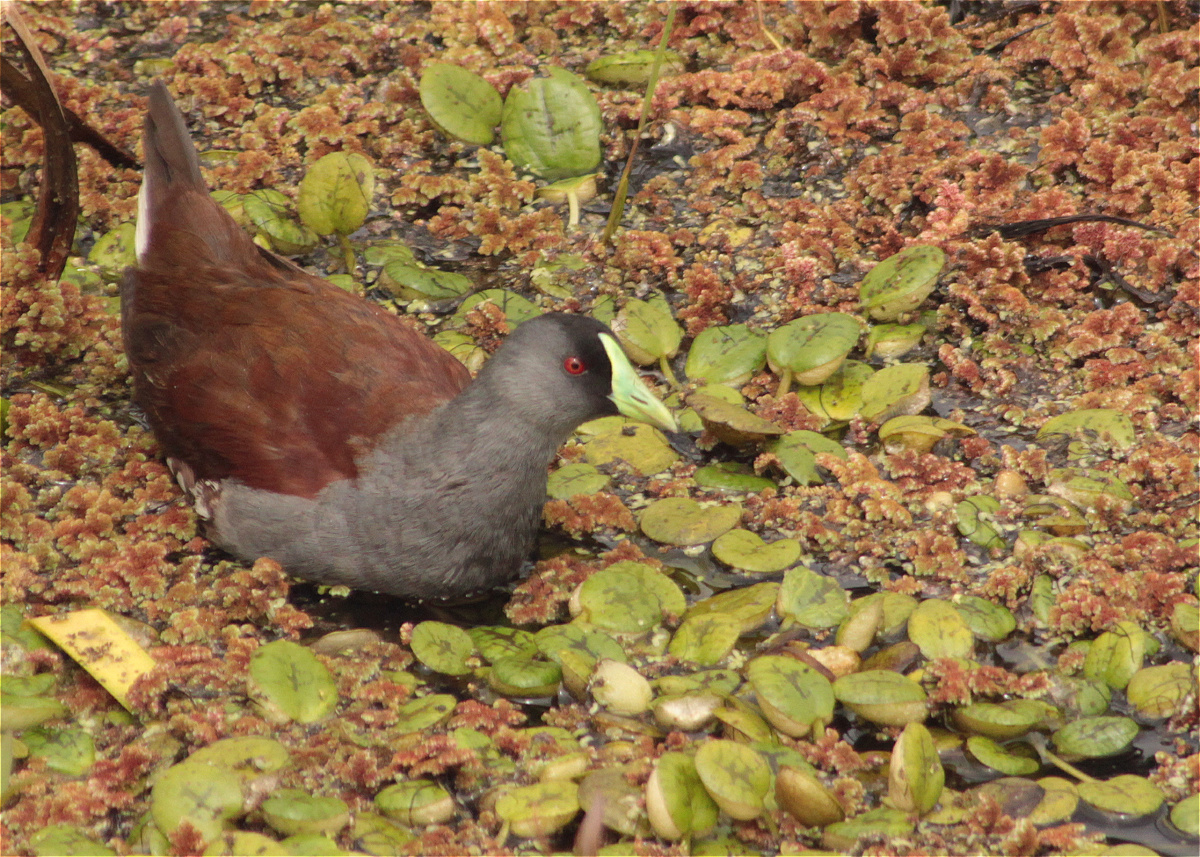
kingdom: Animalia
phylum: Chordata
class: Aves
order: Gruiformes
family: Rallidae
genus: Gallinula
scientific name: Gallinula melanops
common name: Spot-flanked gallinule
